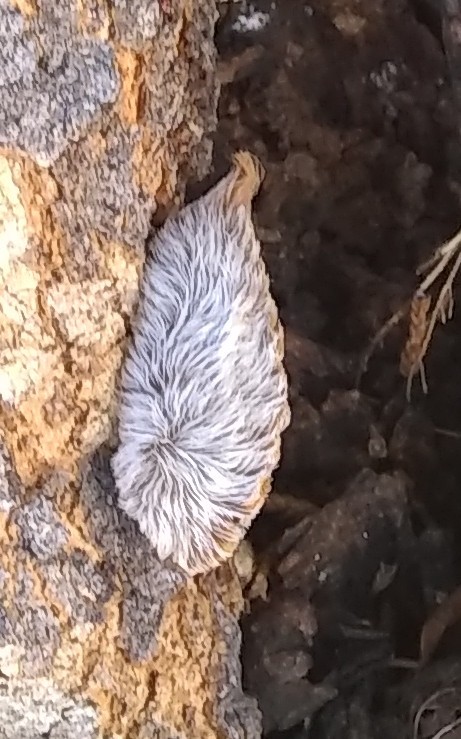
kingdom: Animalia
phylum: Arthropoda
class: Insecta
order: Lepidoptera
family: Megalopygidae
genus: Megalopyge
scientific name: Megalopyge opercularis
